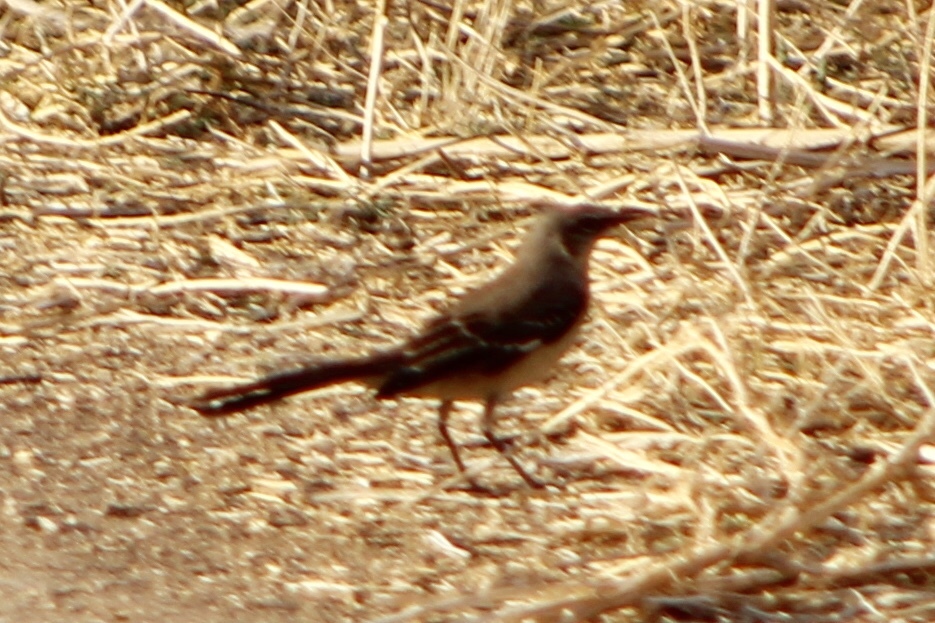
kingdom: Animalia
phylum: Chordata
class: Aves
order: Passeriformes
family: Mimidae
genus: Mimus
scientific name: Mimus polyglottos
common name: Northern mockingbird
